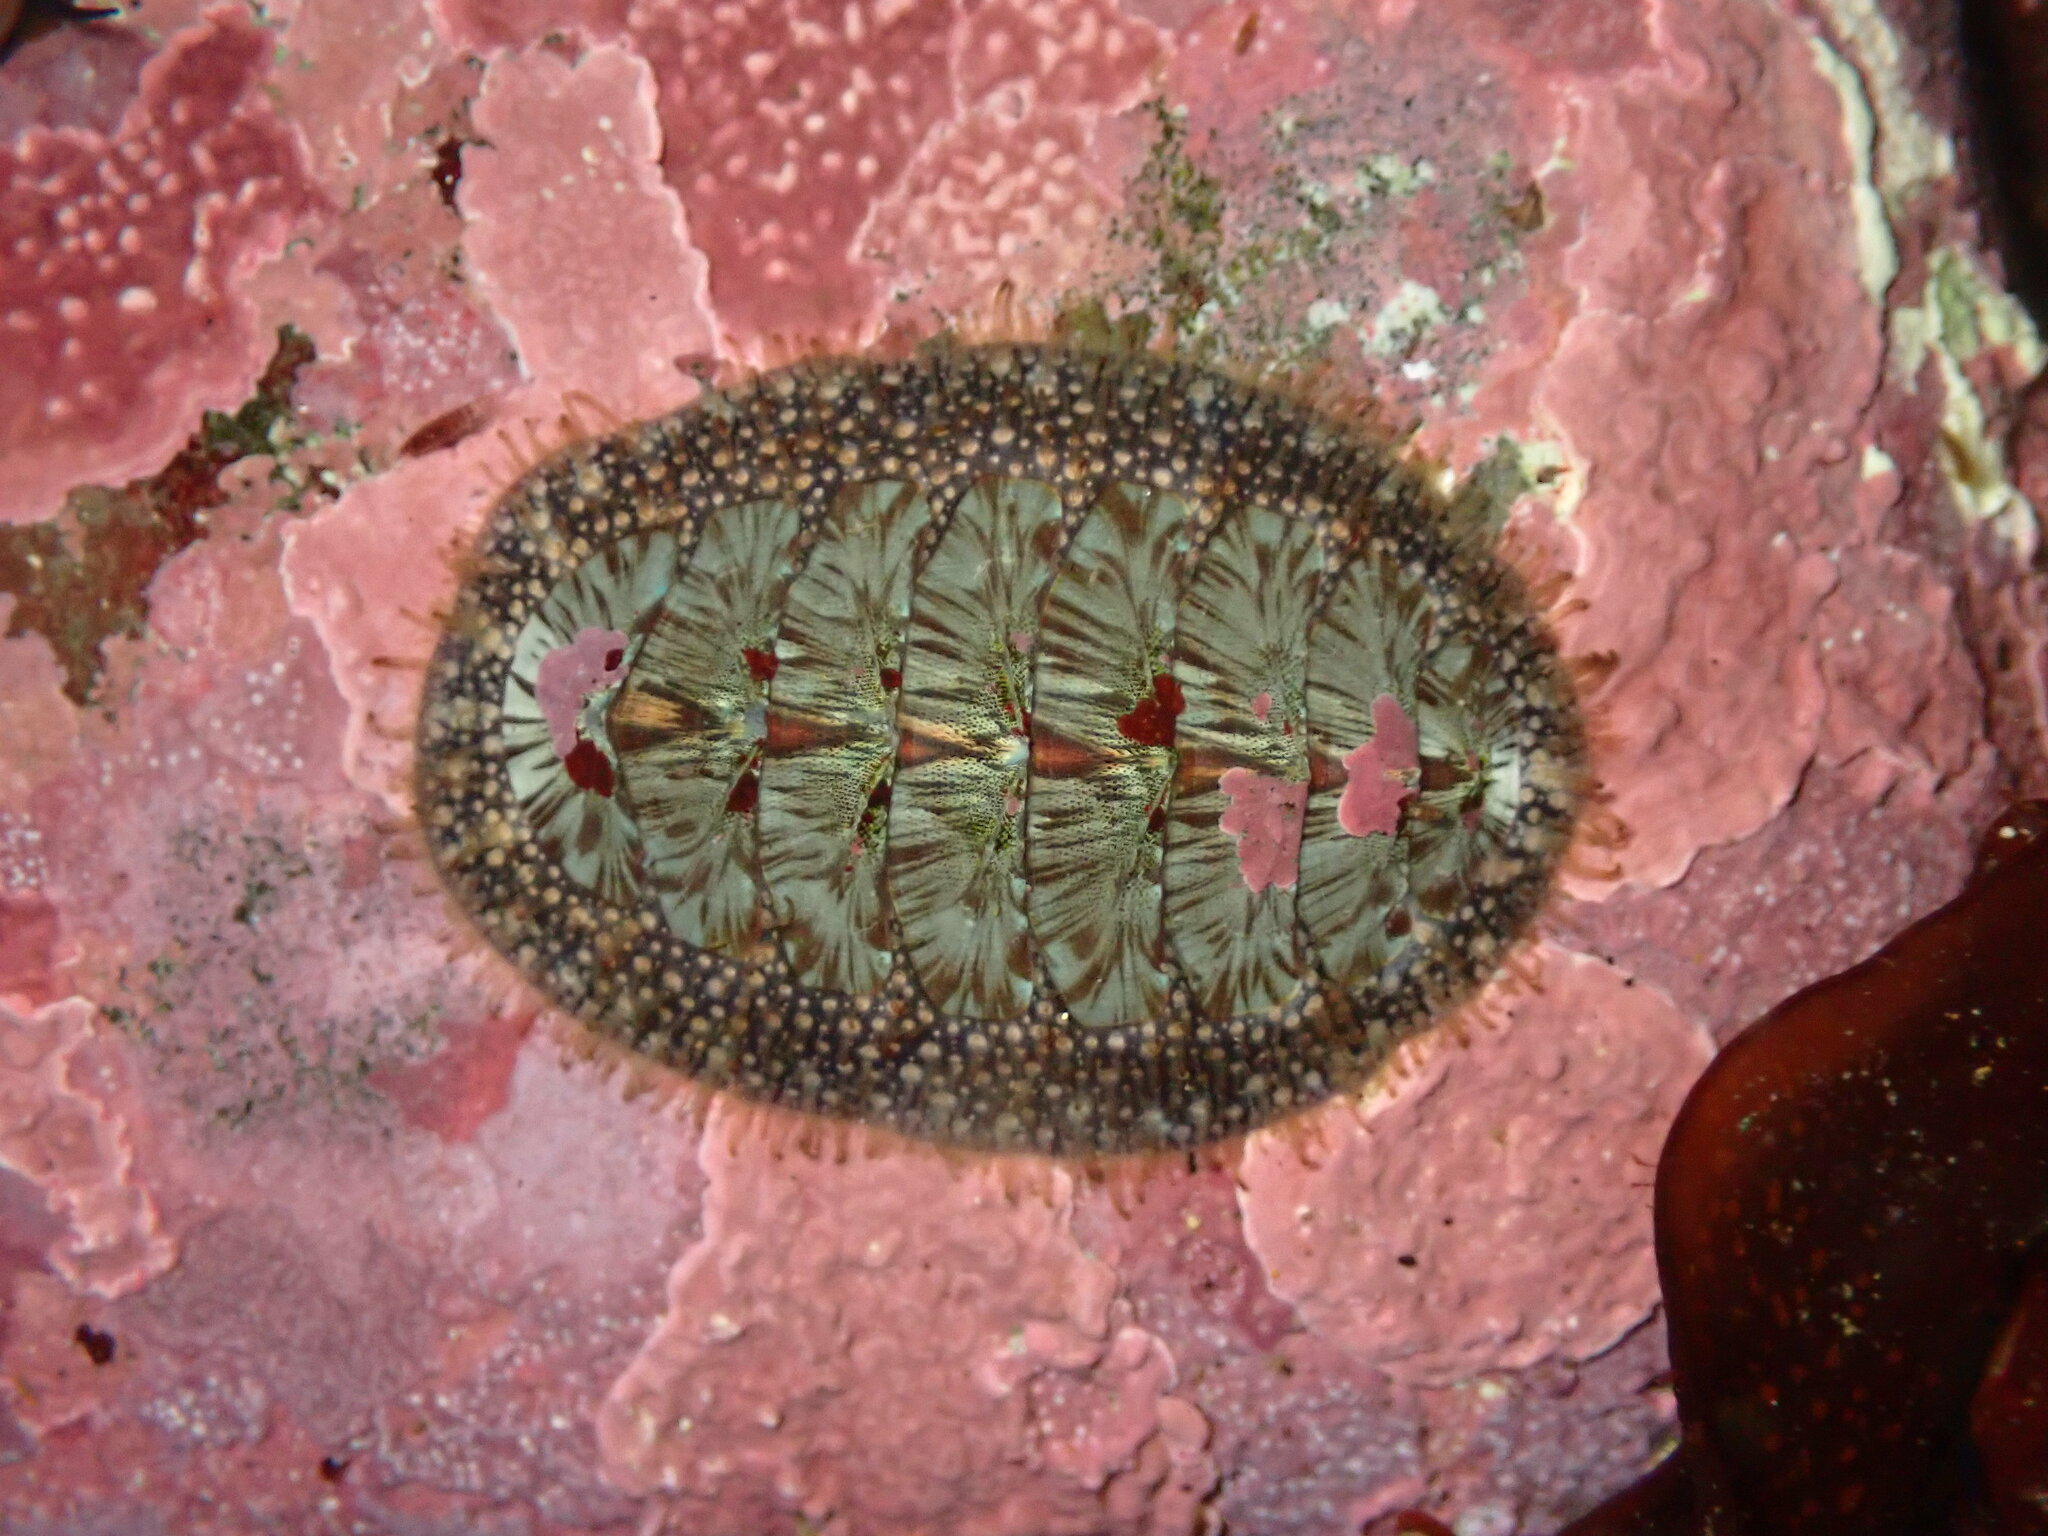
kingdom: Animalia
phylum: Mollusca
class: Polyplacophora
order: Chitonida
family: Mopaliidae
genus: Mopalia
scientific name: Mopalia lignosa
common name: Woody chiton
